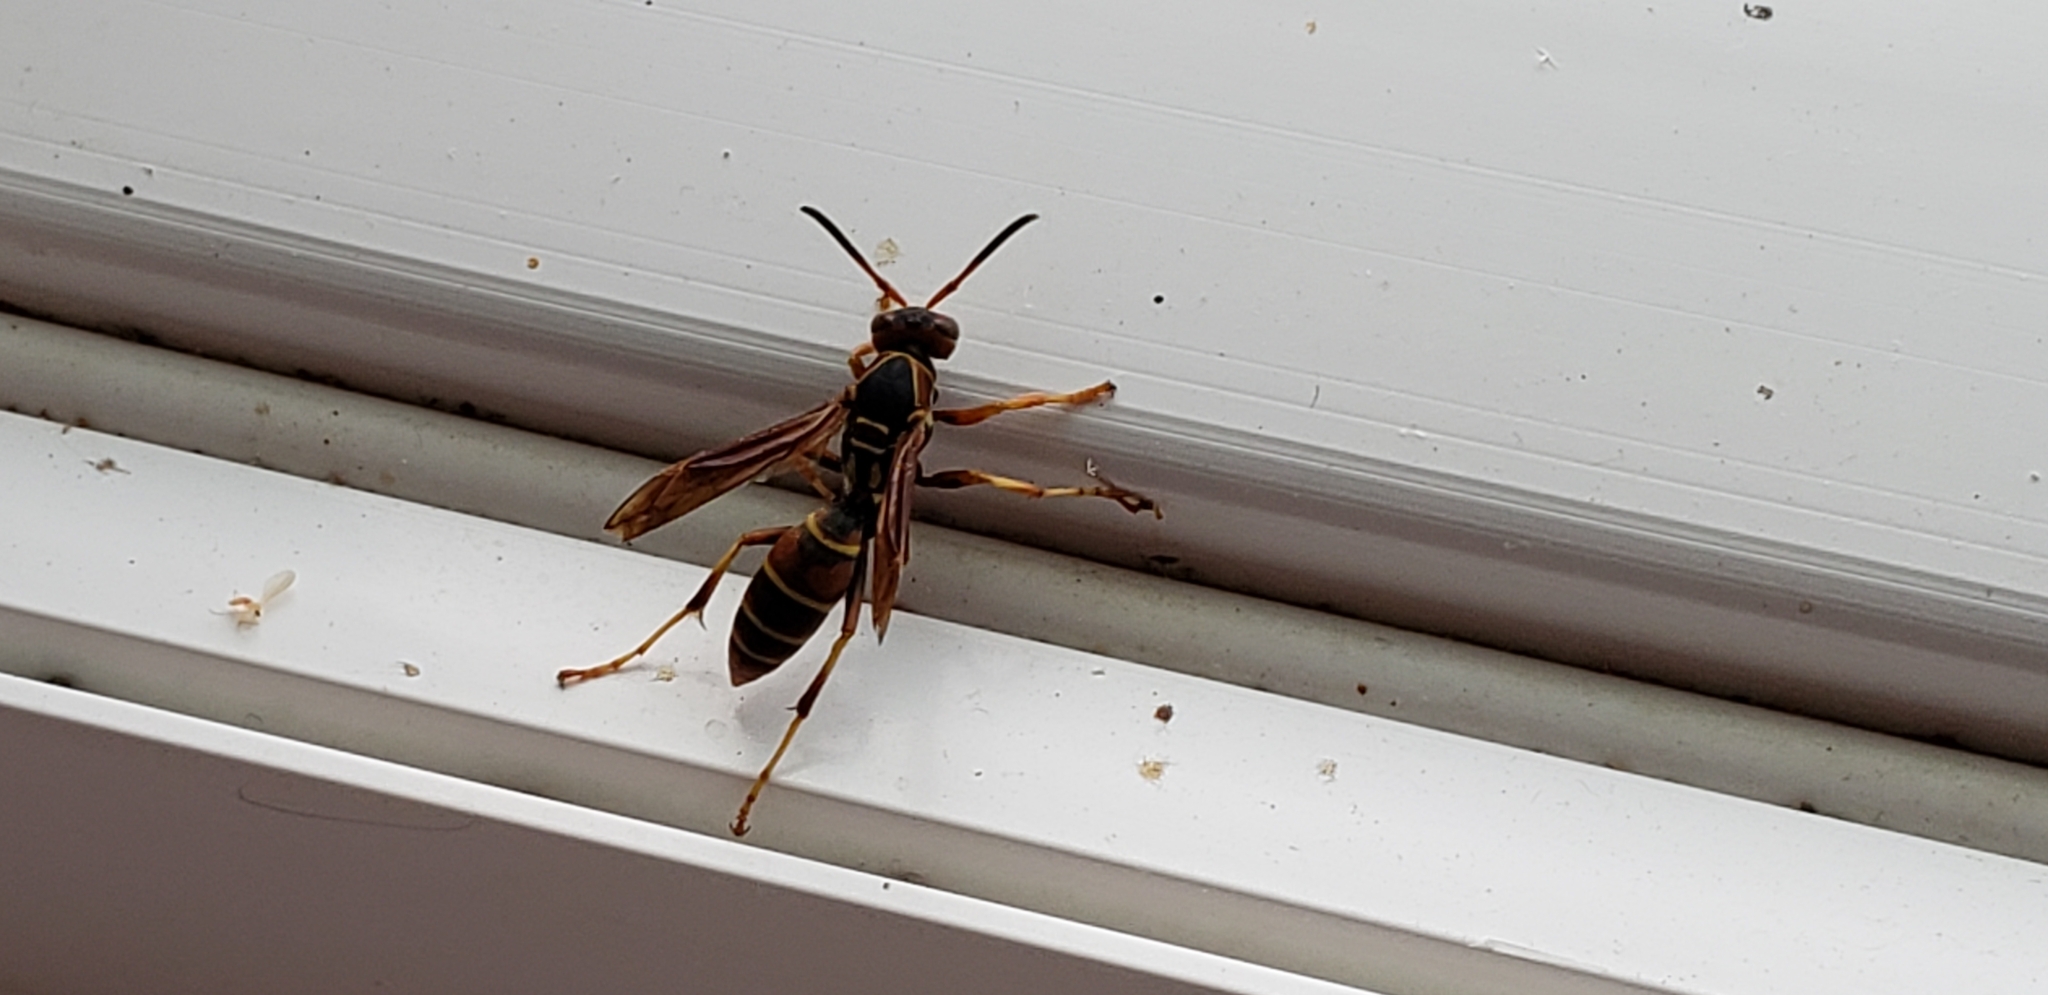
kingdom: Animalia
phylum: Arthropoda
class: Insecta
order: Hymenoptera
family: Eumenidae
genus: Polistes
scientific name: Polistes fuscatus
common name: Dark paper wasp
